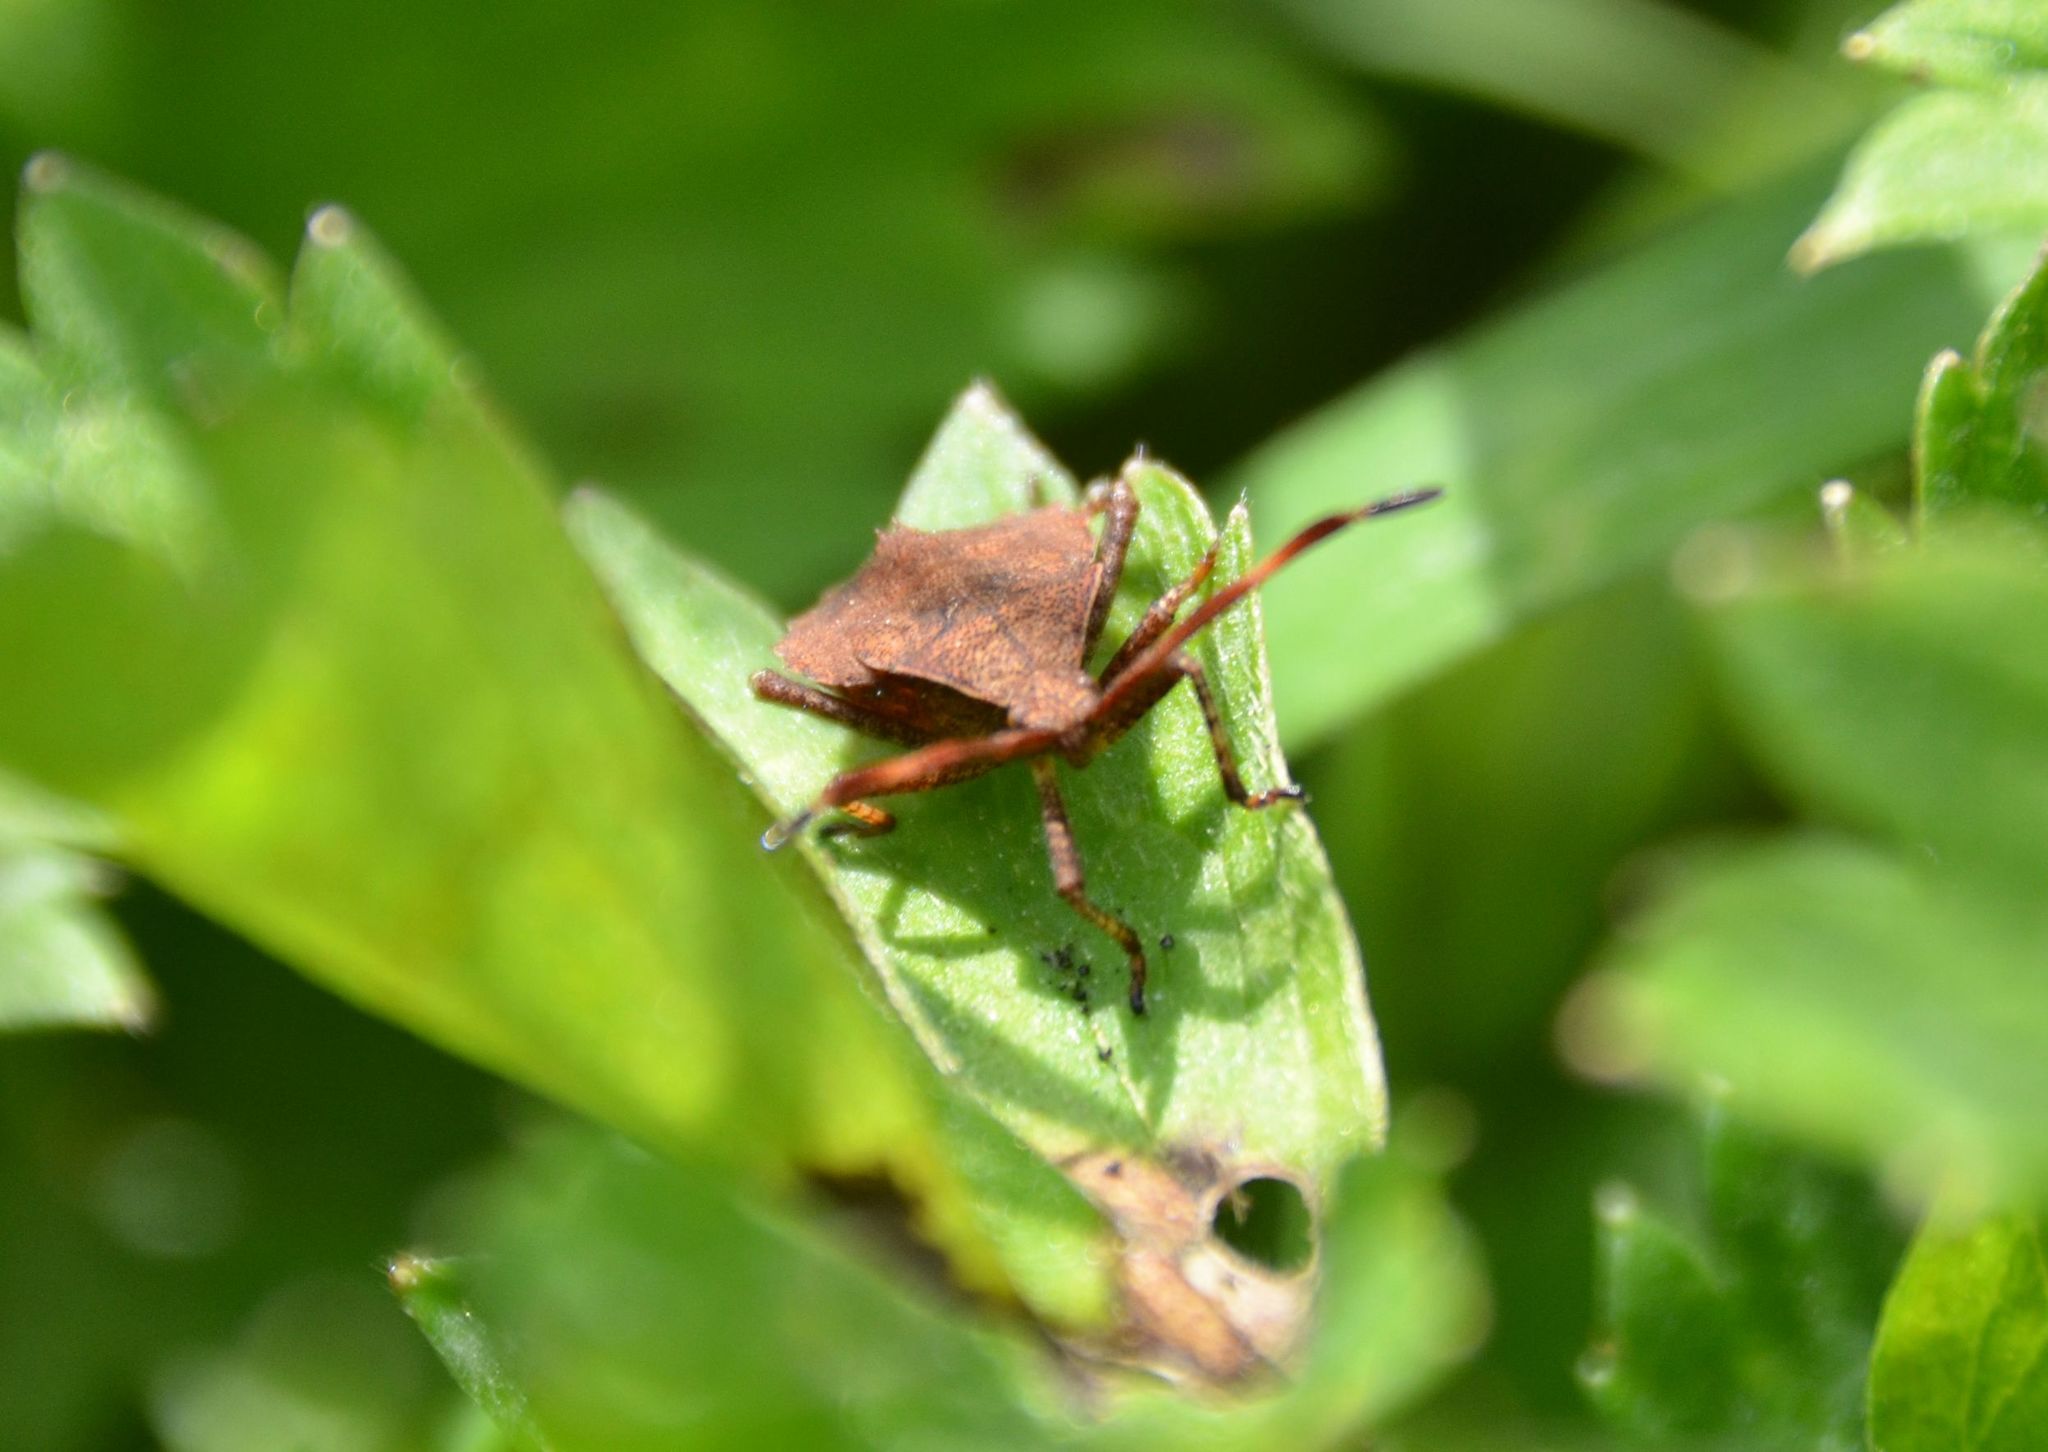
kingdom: Animalia
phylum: Arthropoda
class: Insecta
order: Hemiptera
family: Coreidae
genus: Coreus
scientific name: Coreus marginatus
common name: Dock bug
